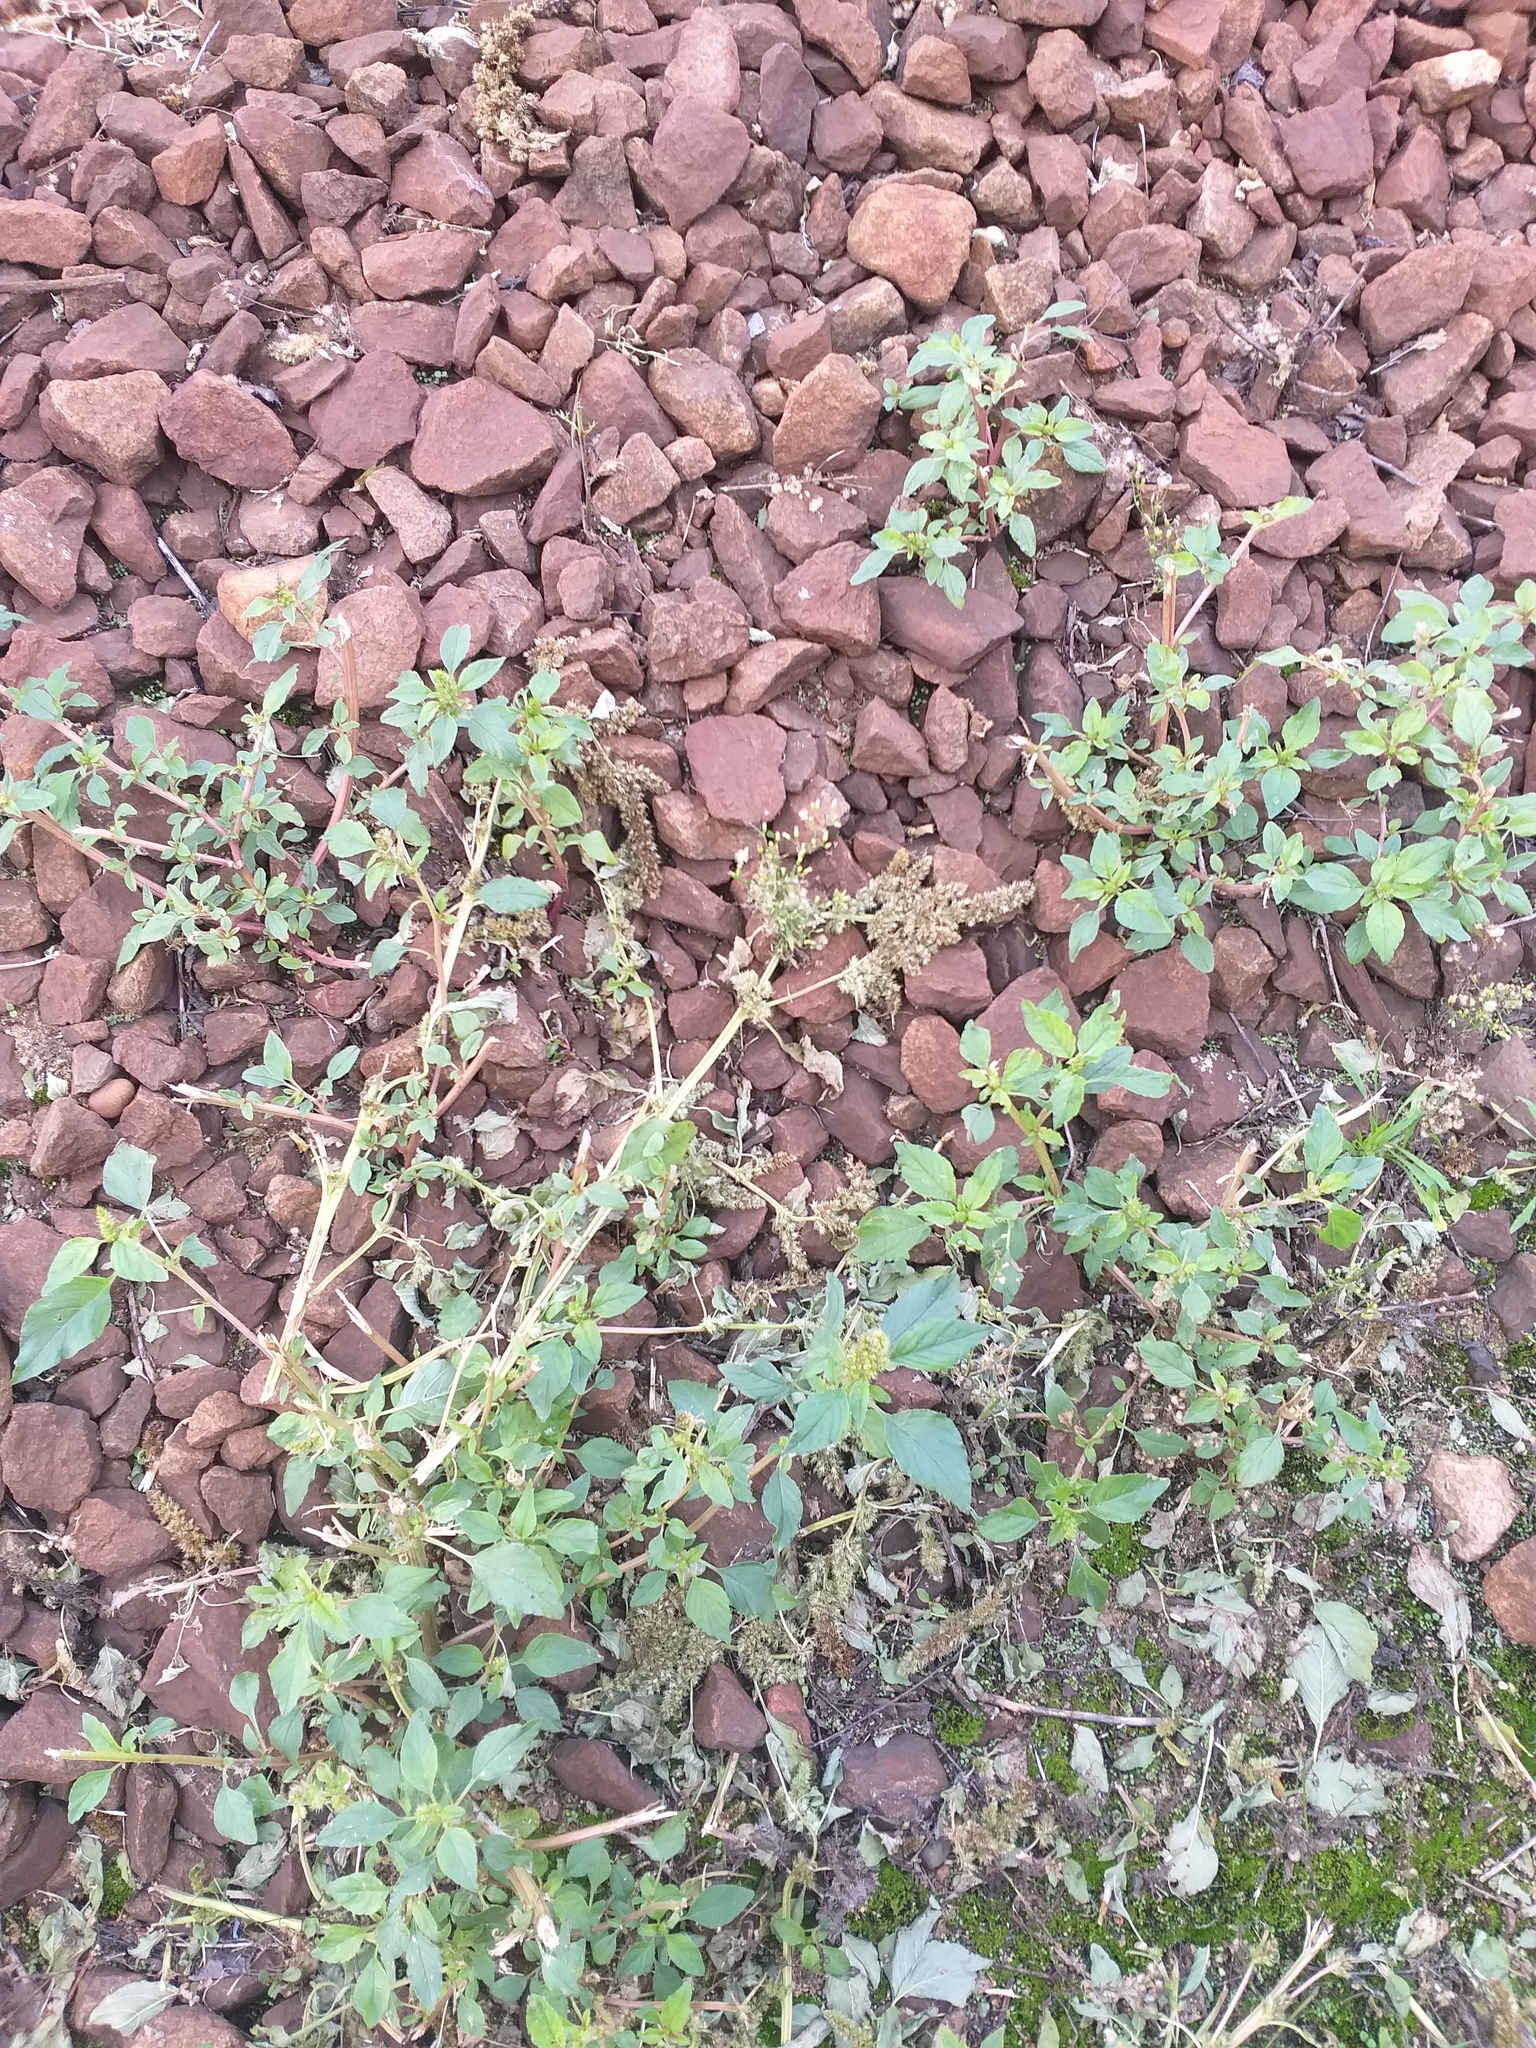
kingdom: Plantae
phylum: Tracheophyta
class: Magnoliopsida
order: Caryophyllales
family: Amaranthaceae
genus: Amaranthus
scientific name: Amaranthus retroflexus
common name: Redroot amaranth
